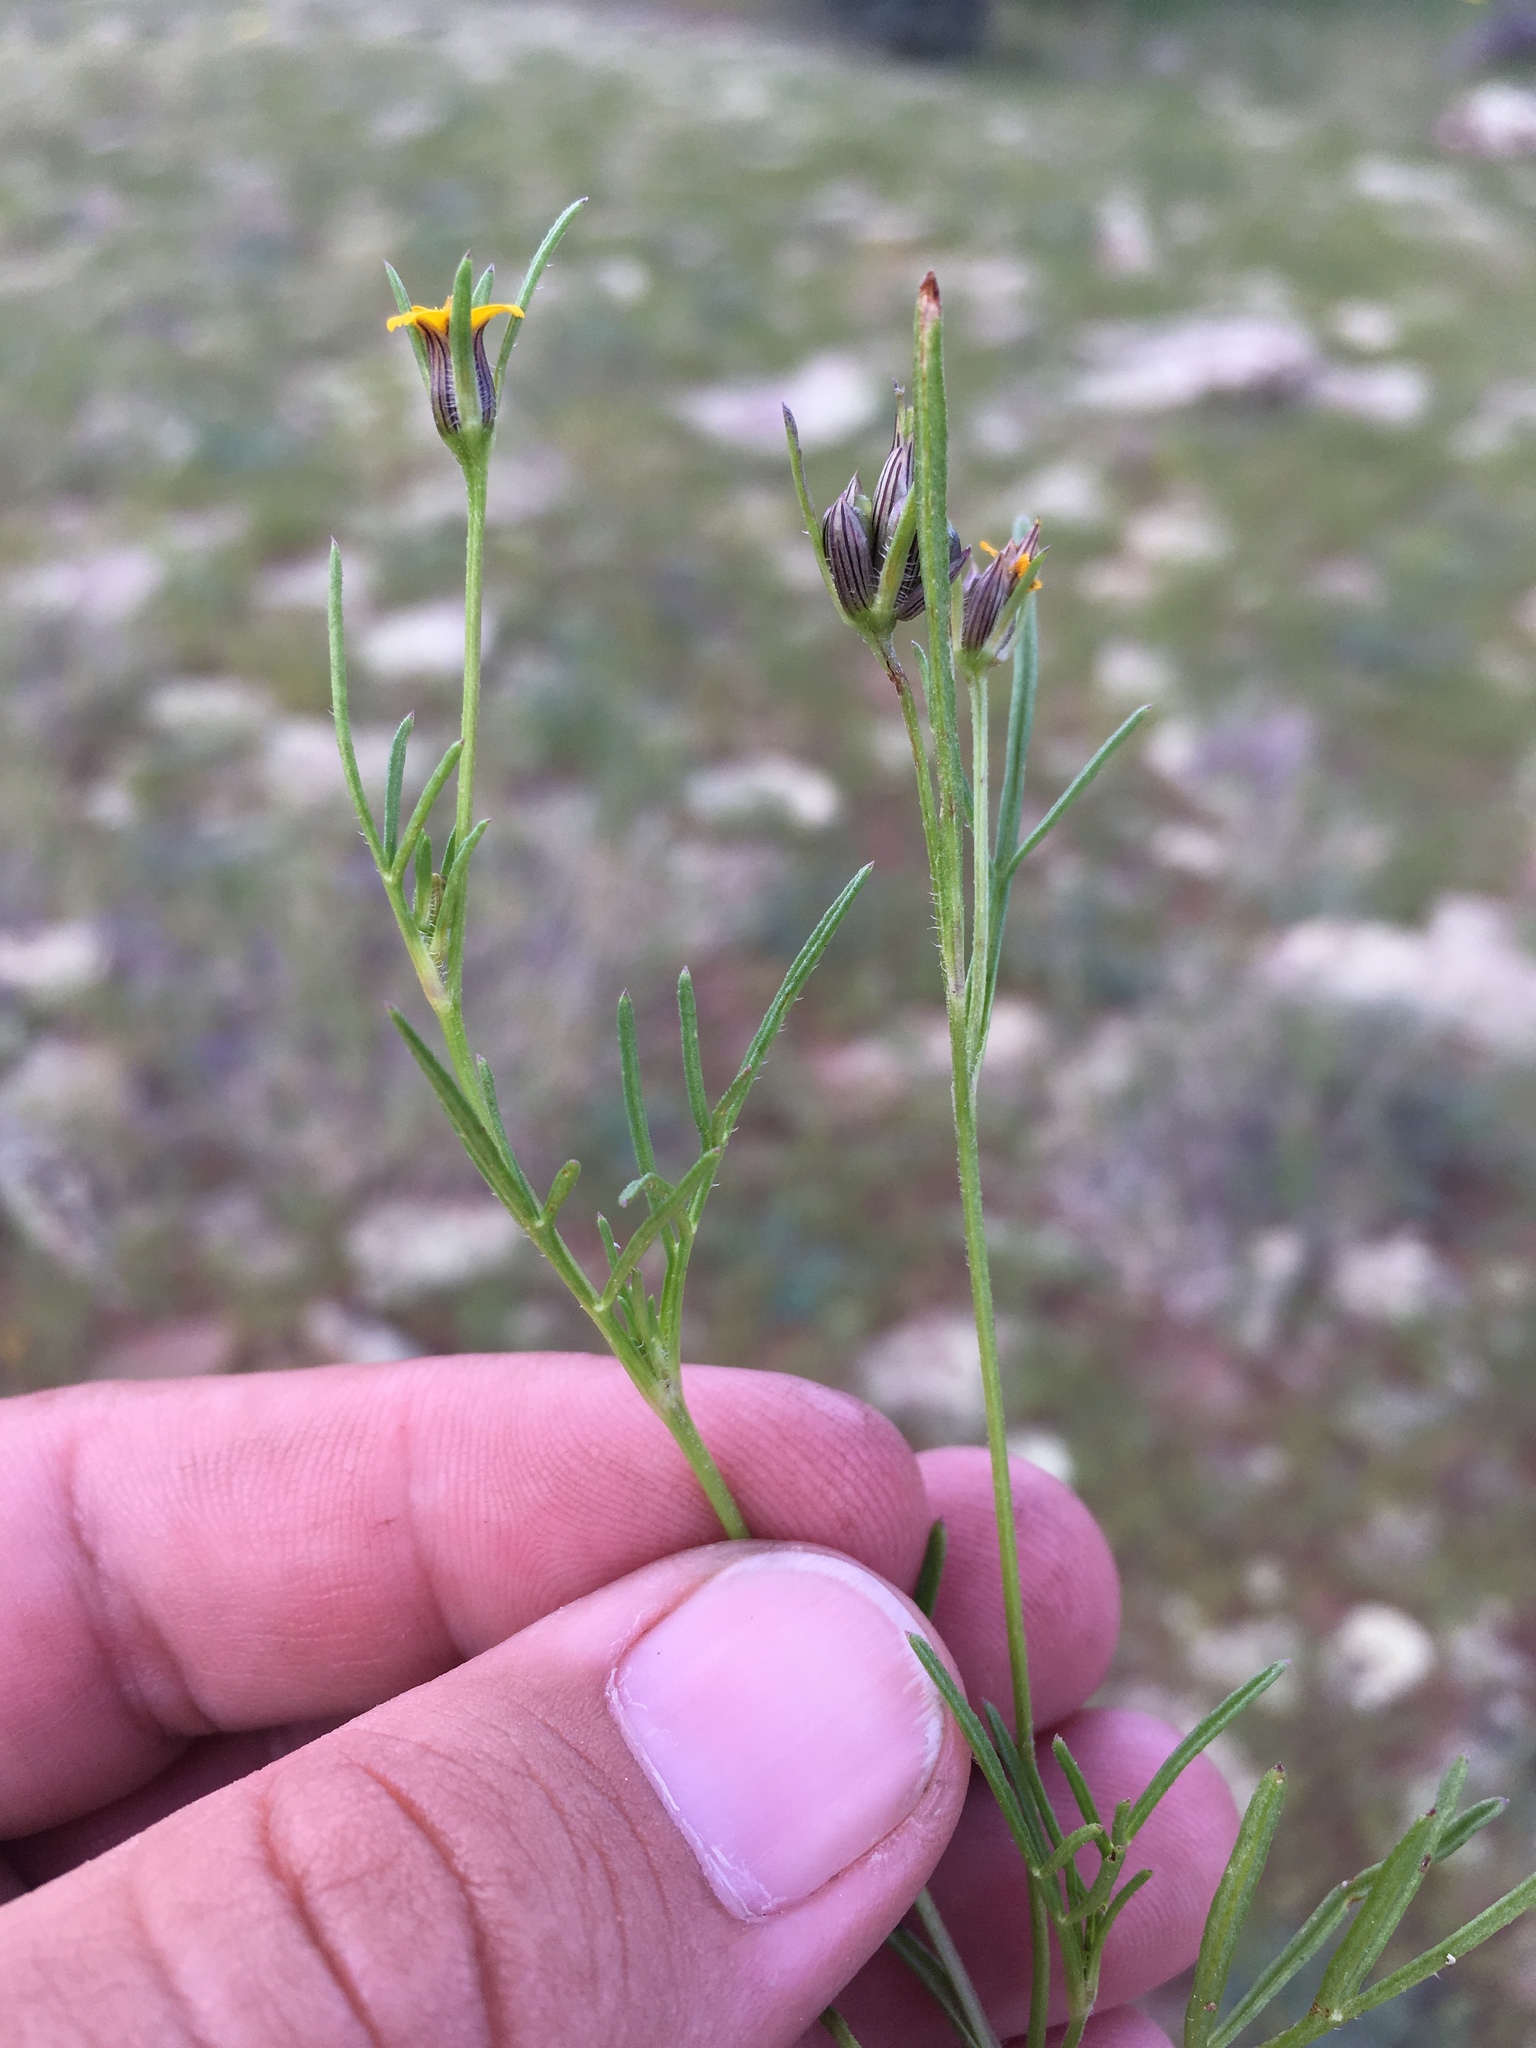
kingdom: Plantae
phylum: Tracheophyta
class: Magnoliopsida
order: Asterales
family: Asteraceae
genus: Heterosperma
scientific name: Heterosperma pinnatum
